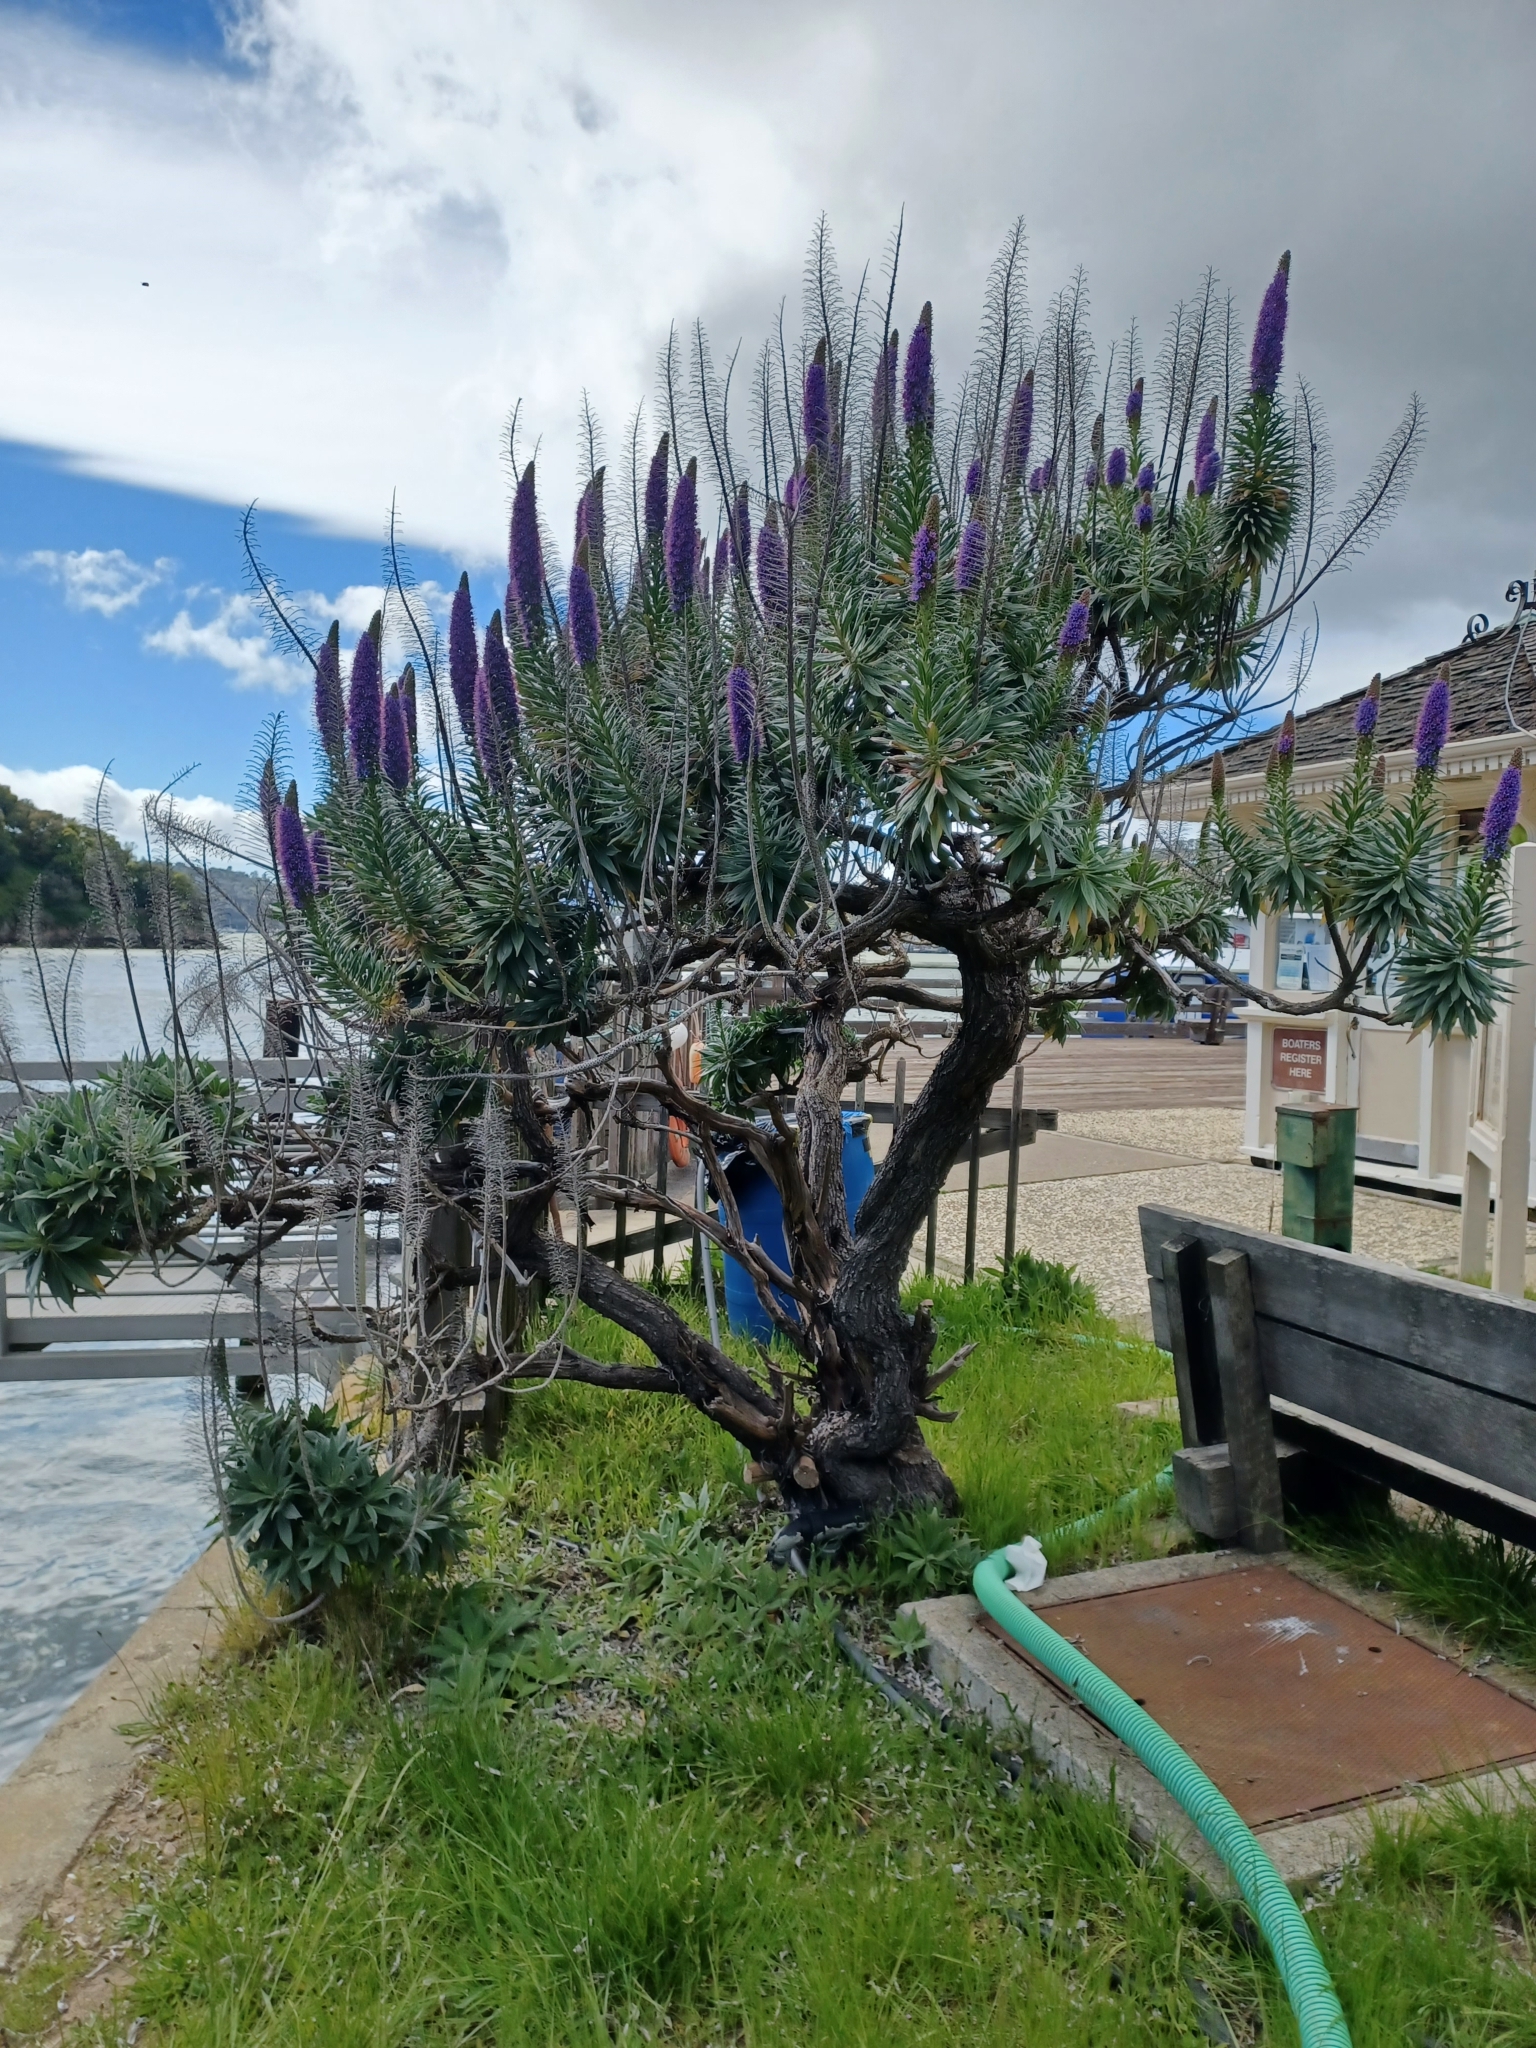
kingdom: Plantae
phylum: Tracheophyta
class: Magnoliopsida
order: Boraginales
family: Boraginaceae
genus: Echium
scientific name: Echium candicans
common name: Pride of madeira
